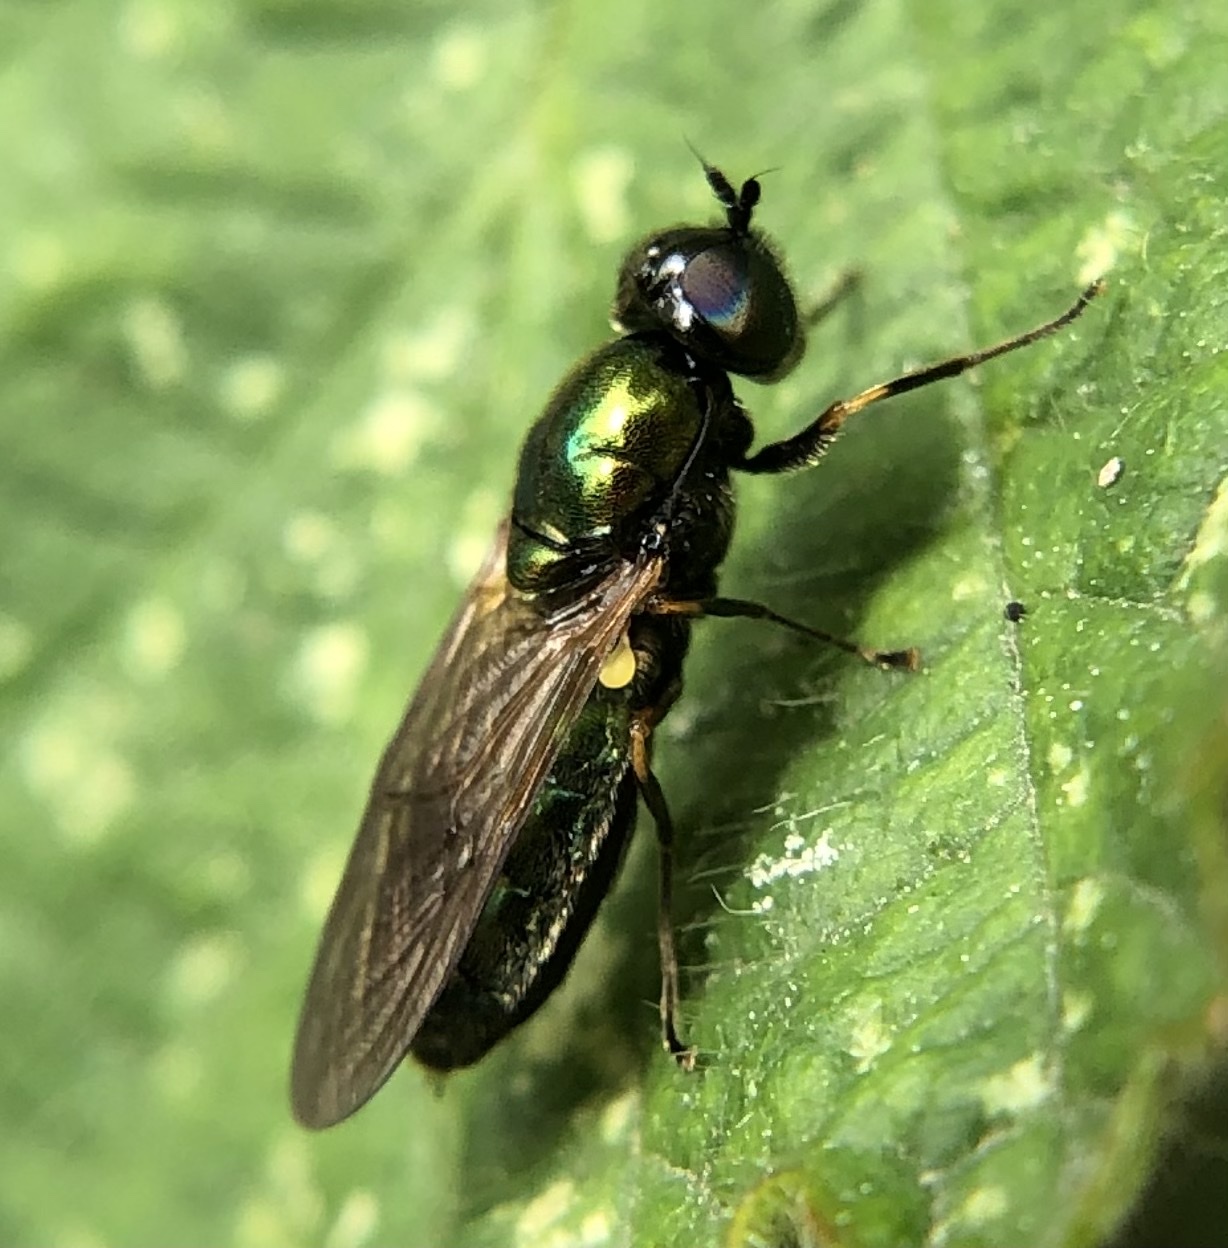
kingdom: Animalia
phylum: Arthropoda
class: Insecta
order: Diptera
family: Stratiomyidae
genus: Chloromyia
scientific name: Chloromyia formosa
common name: Soldier fly
